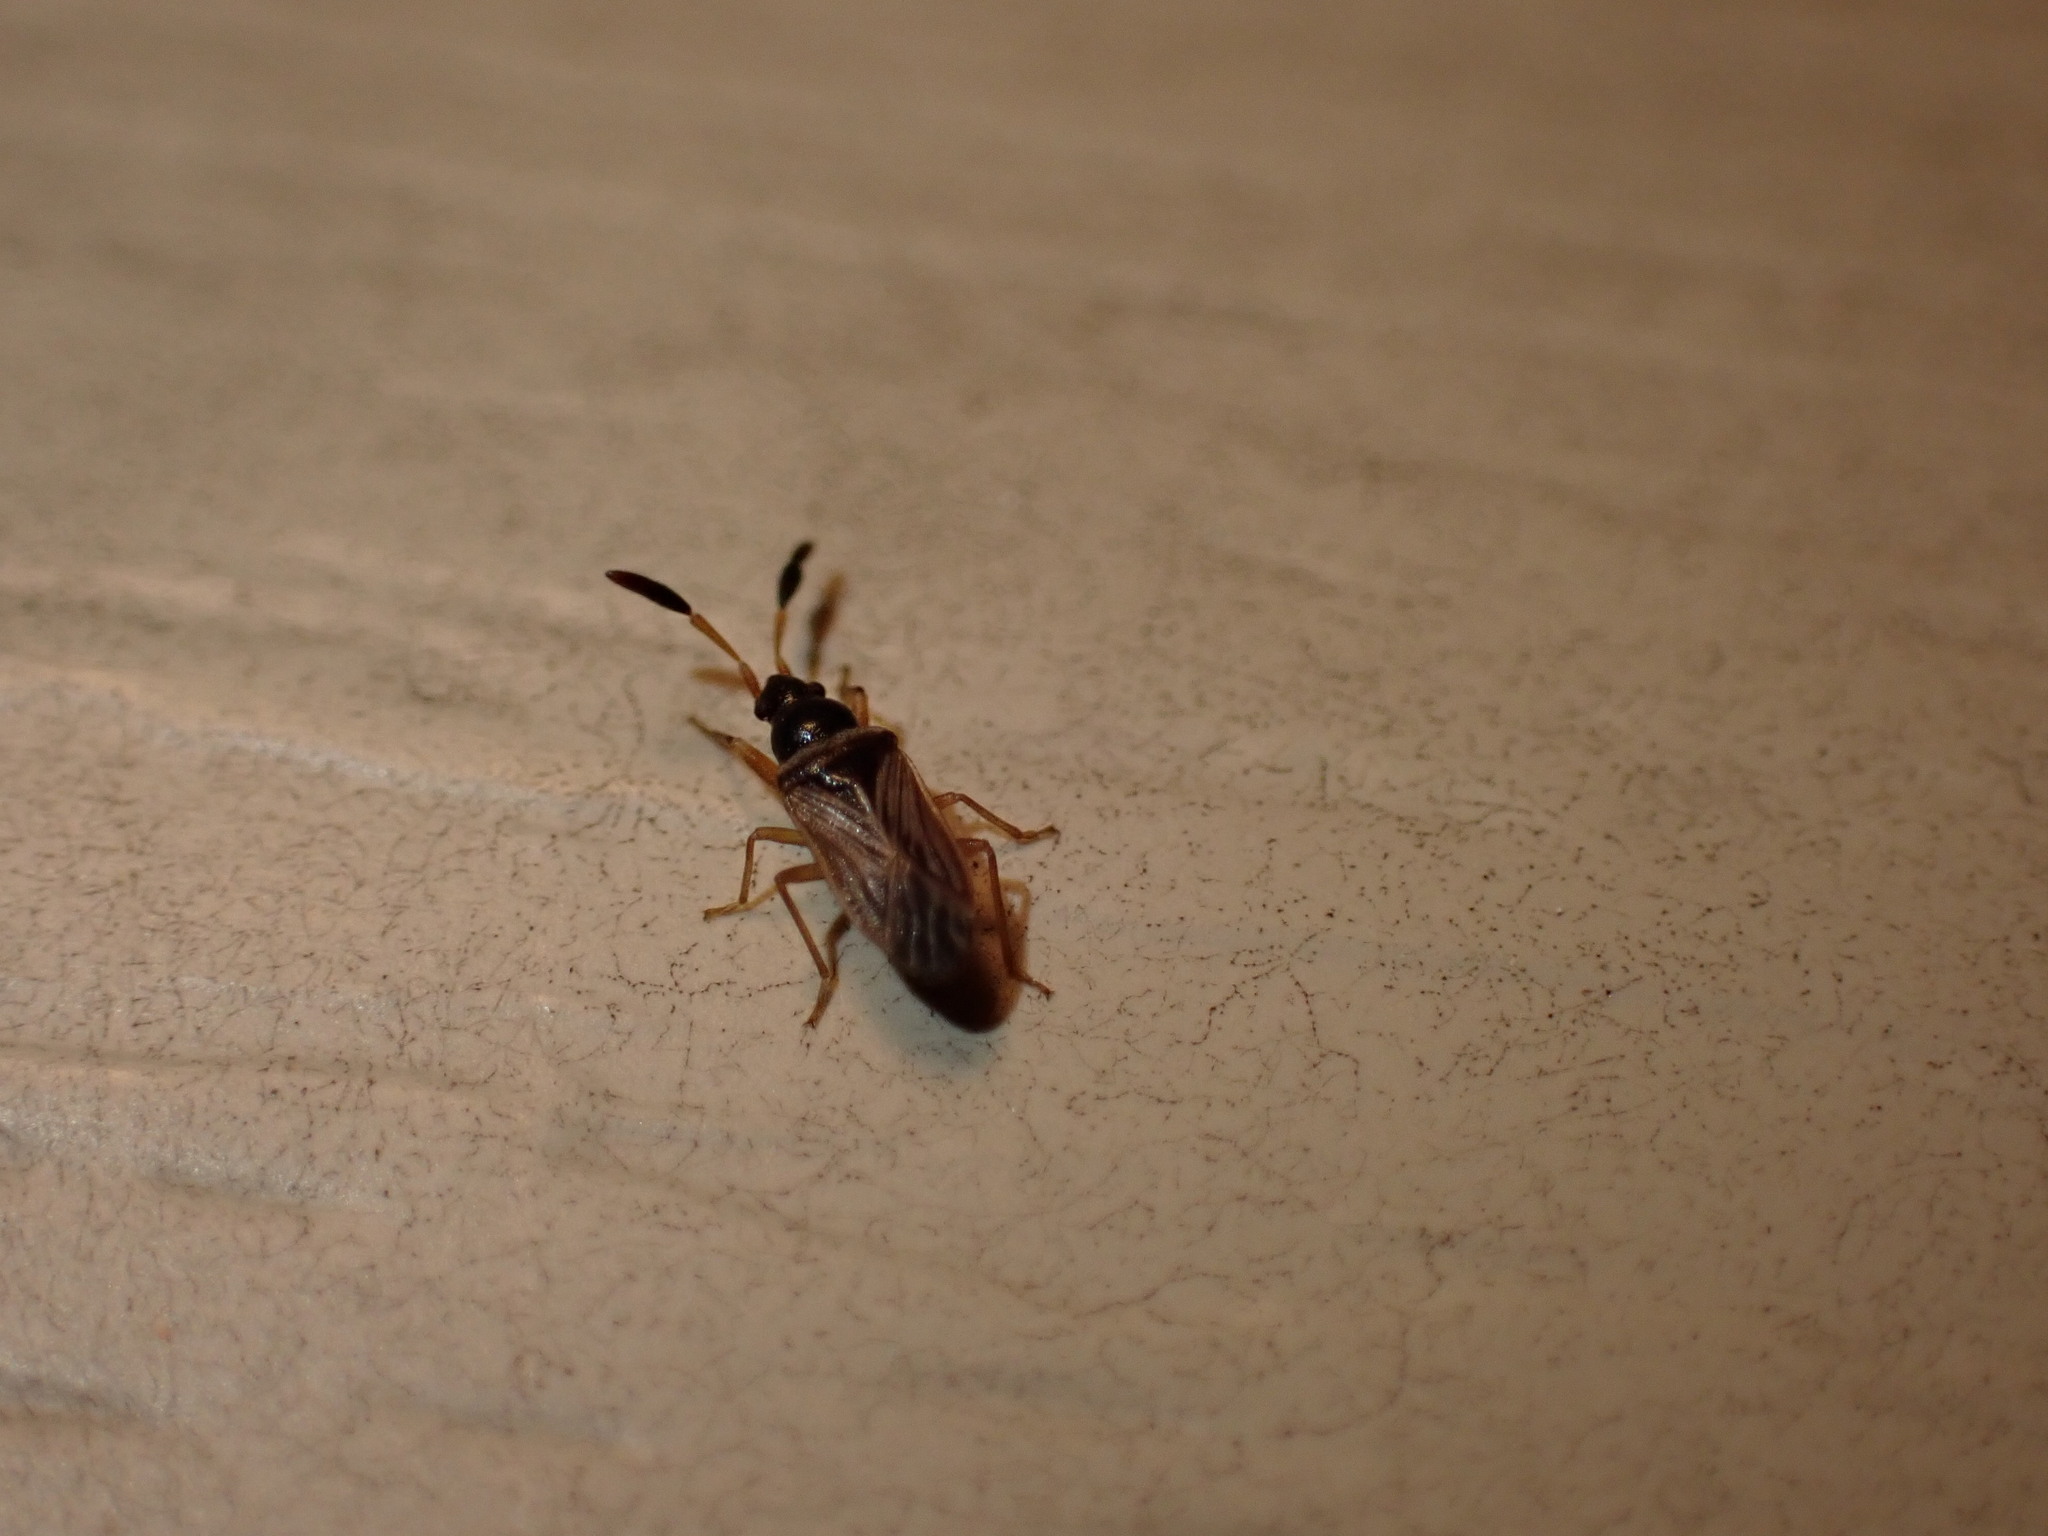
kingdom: Animalia
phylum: Arthropoda
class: Insecta
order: Hemiptera
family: Rhyparochromidae
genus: Ptochiomera
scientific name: Ptochiomera nodosa
